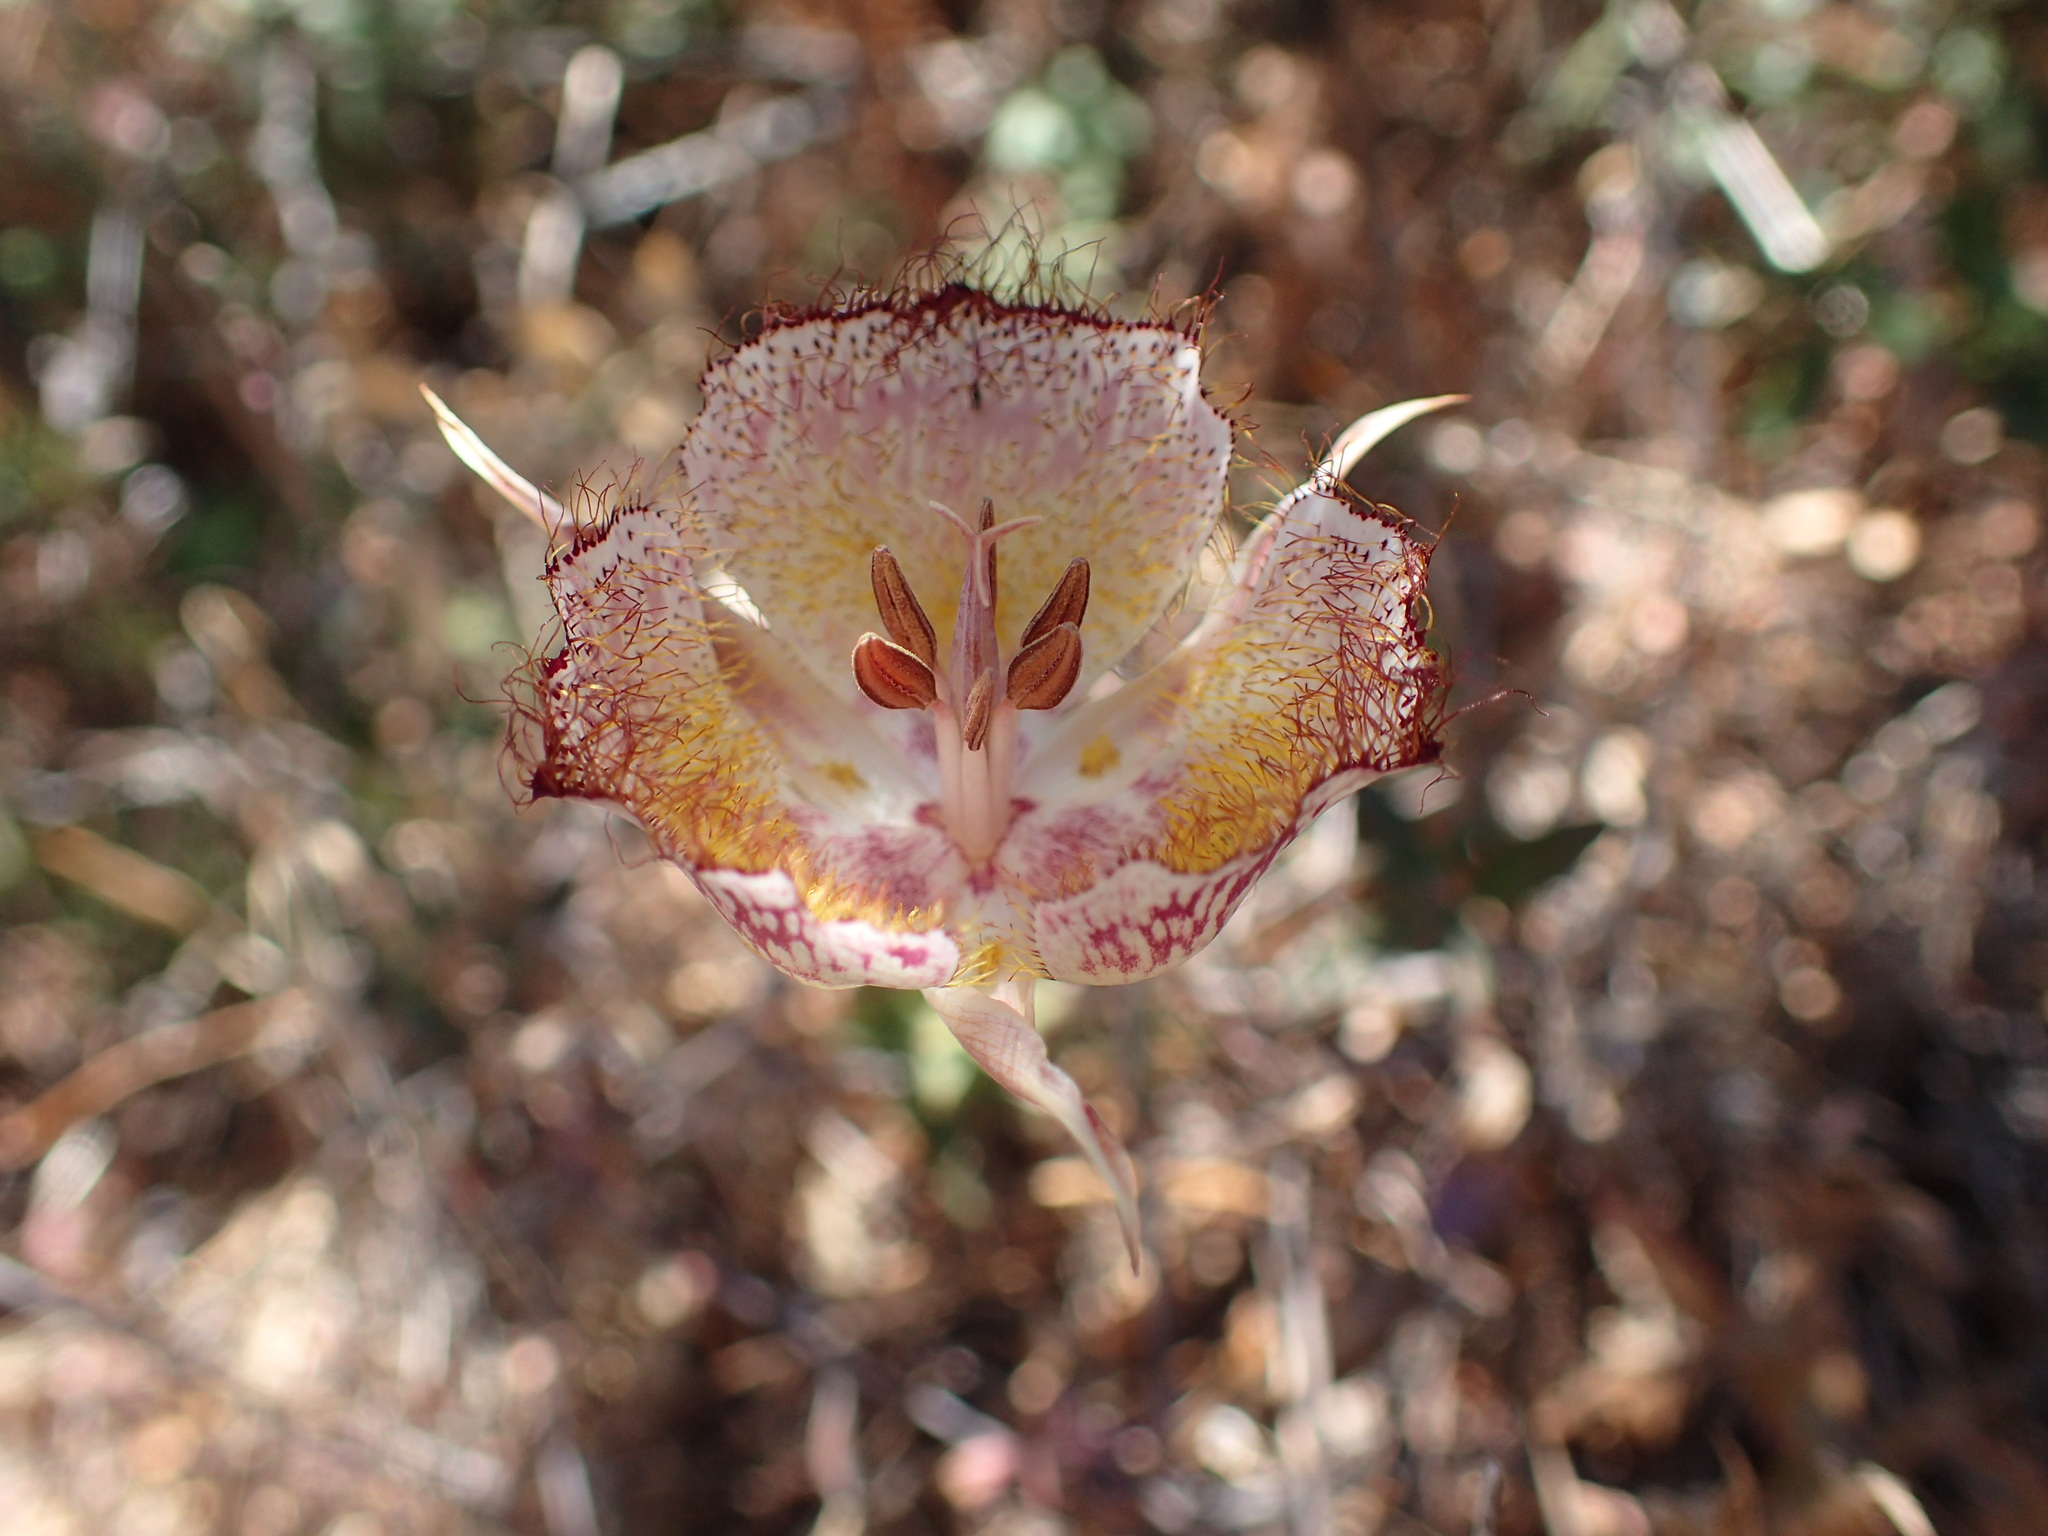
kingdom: Plantae
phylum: Tracheophyta
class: Liliopsida
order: Liliales
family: Liliaceae
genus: Calochortus
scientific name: Calochortus fimbriatus
